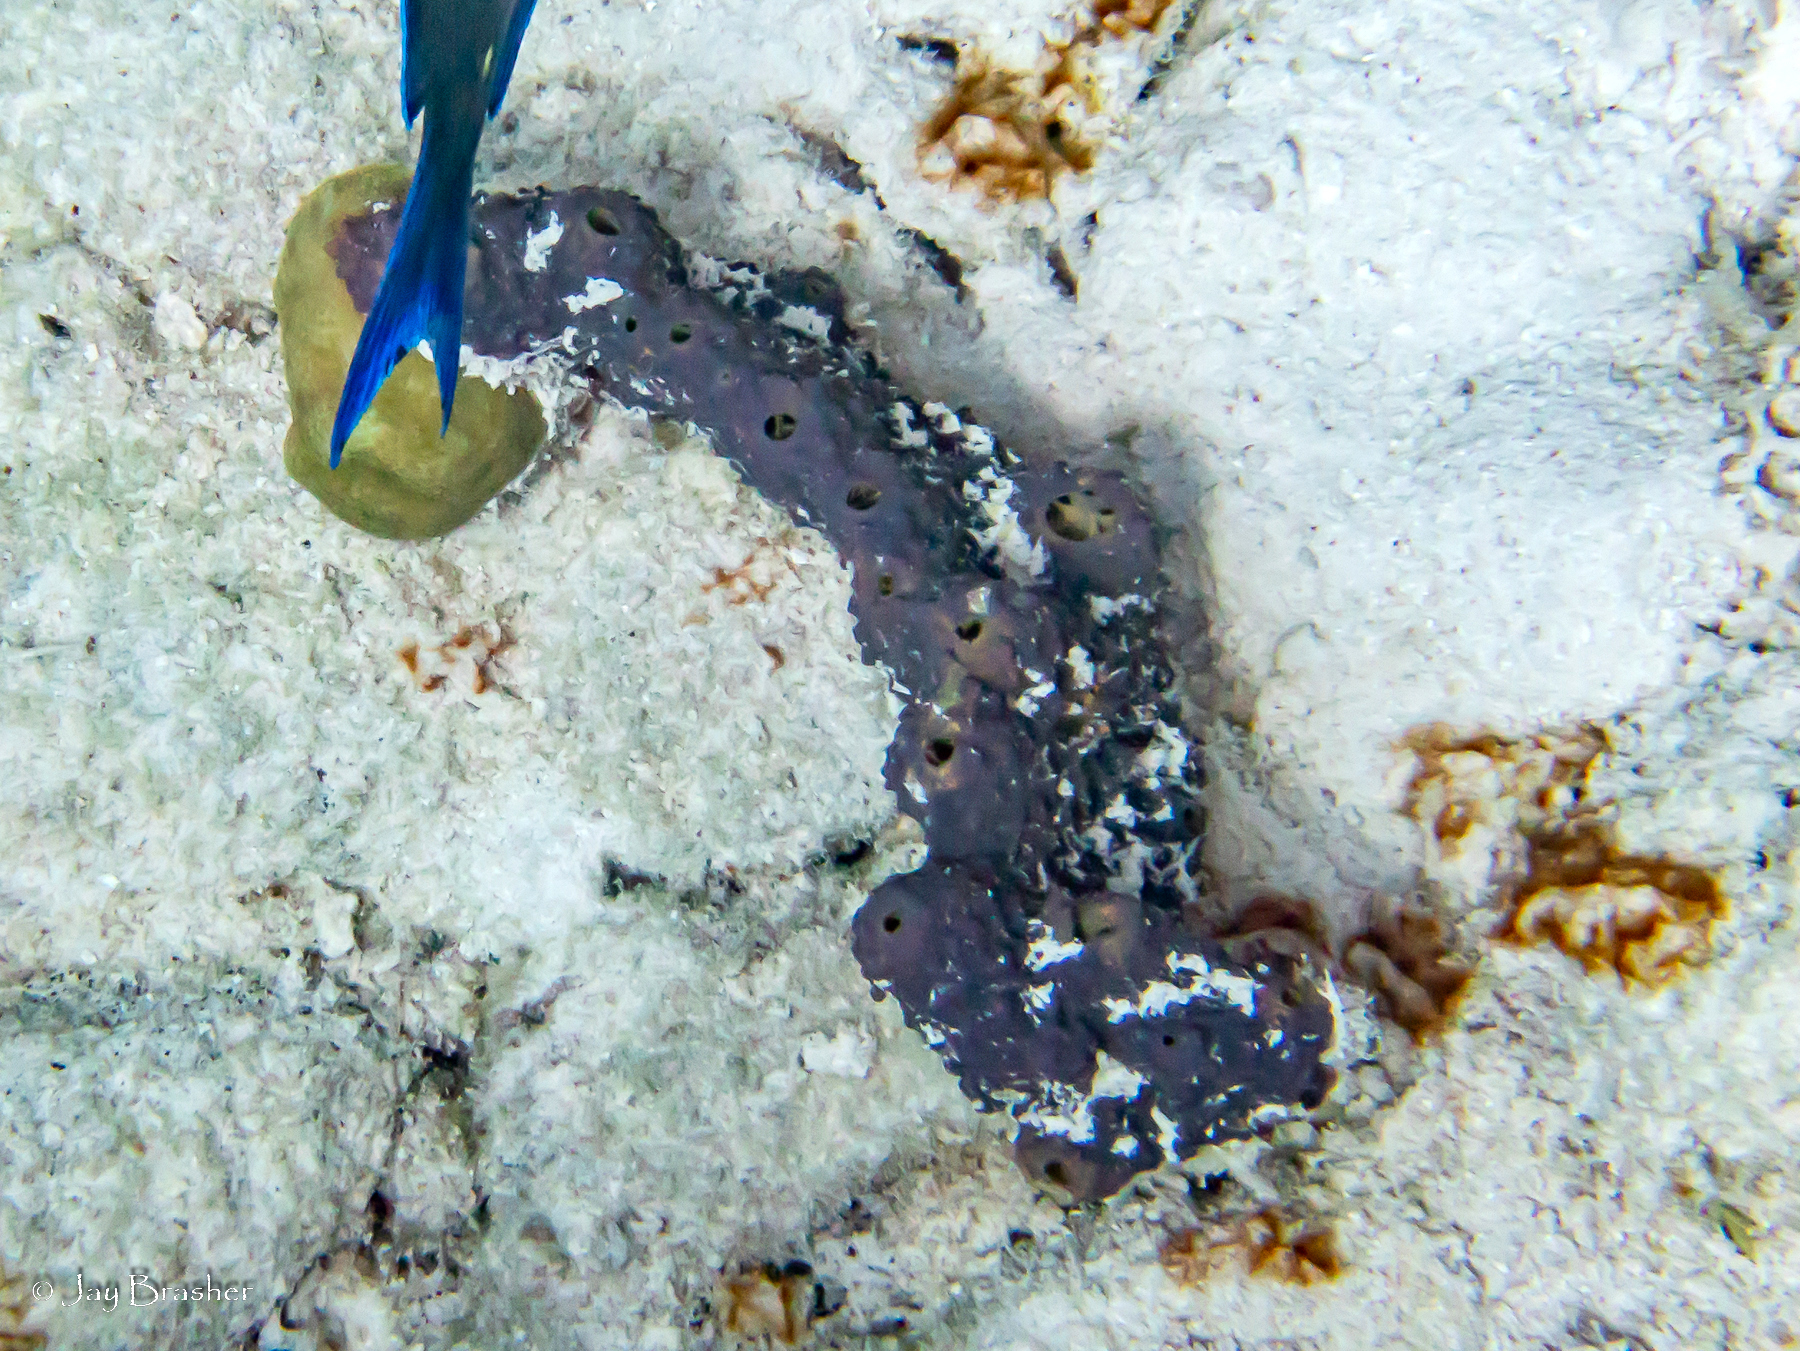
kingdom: Animalia
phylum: Porifera
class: Demospongiae
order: Verongiida
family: Aplysinidae
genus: Aiolochroia
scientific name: Aiolochroia crassa
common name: Branching tube sponge
